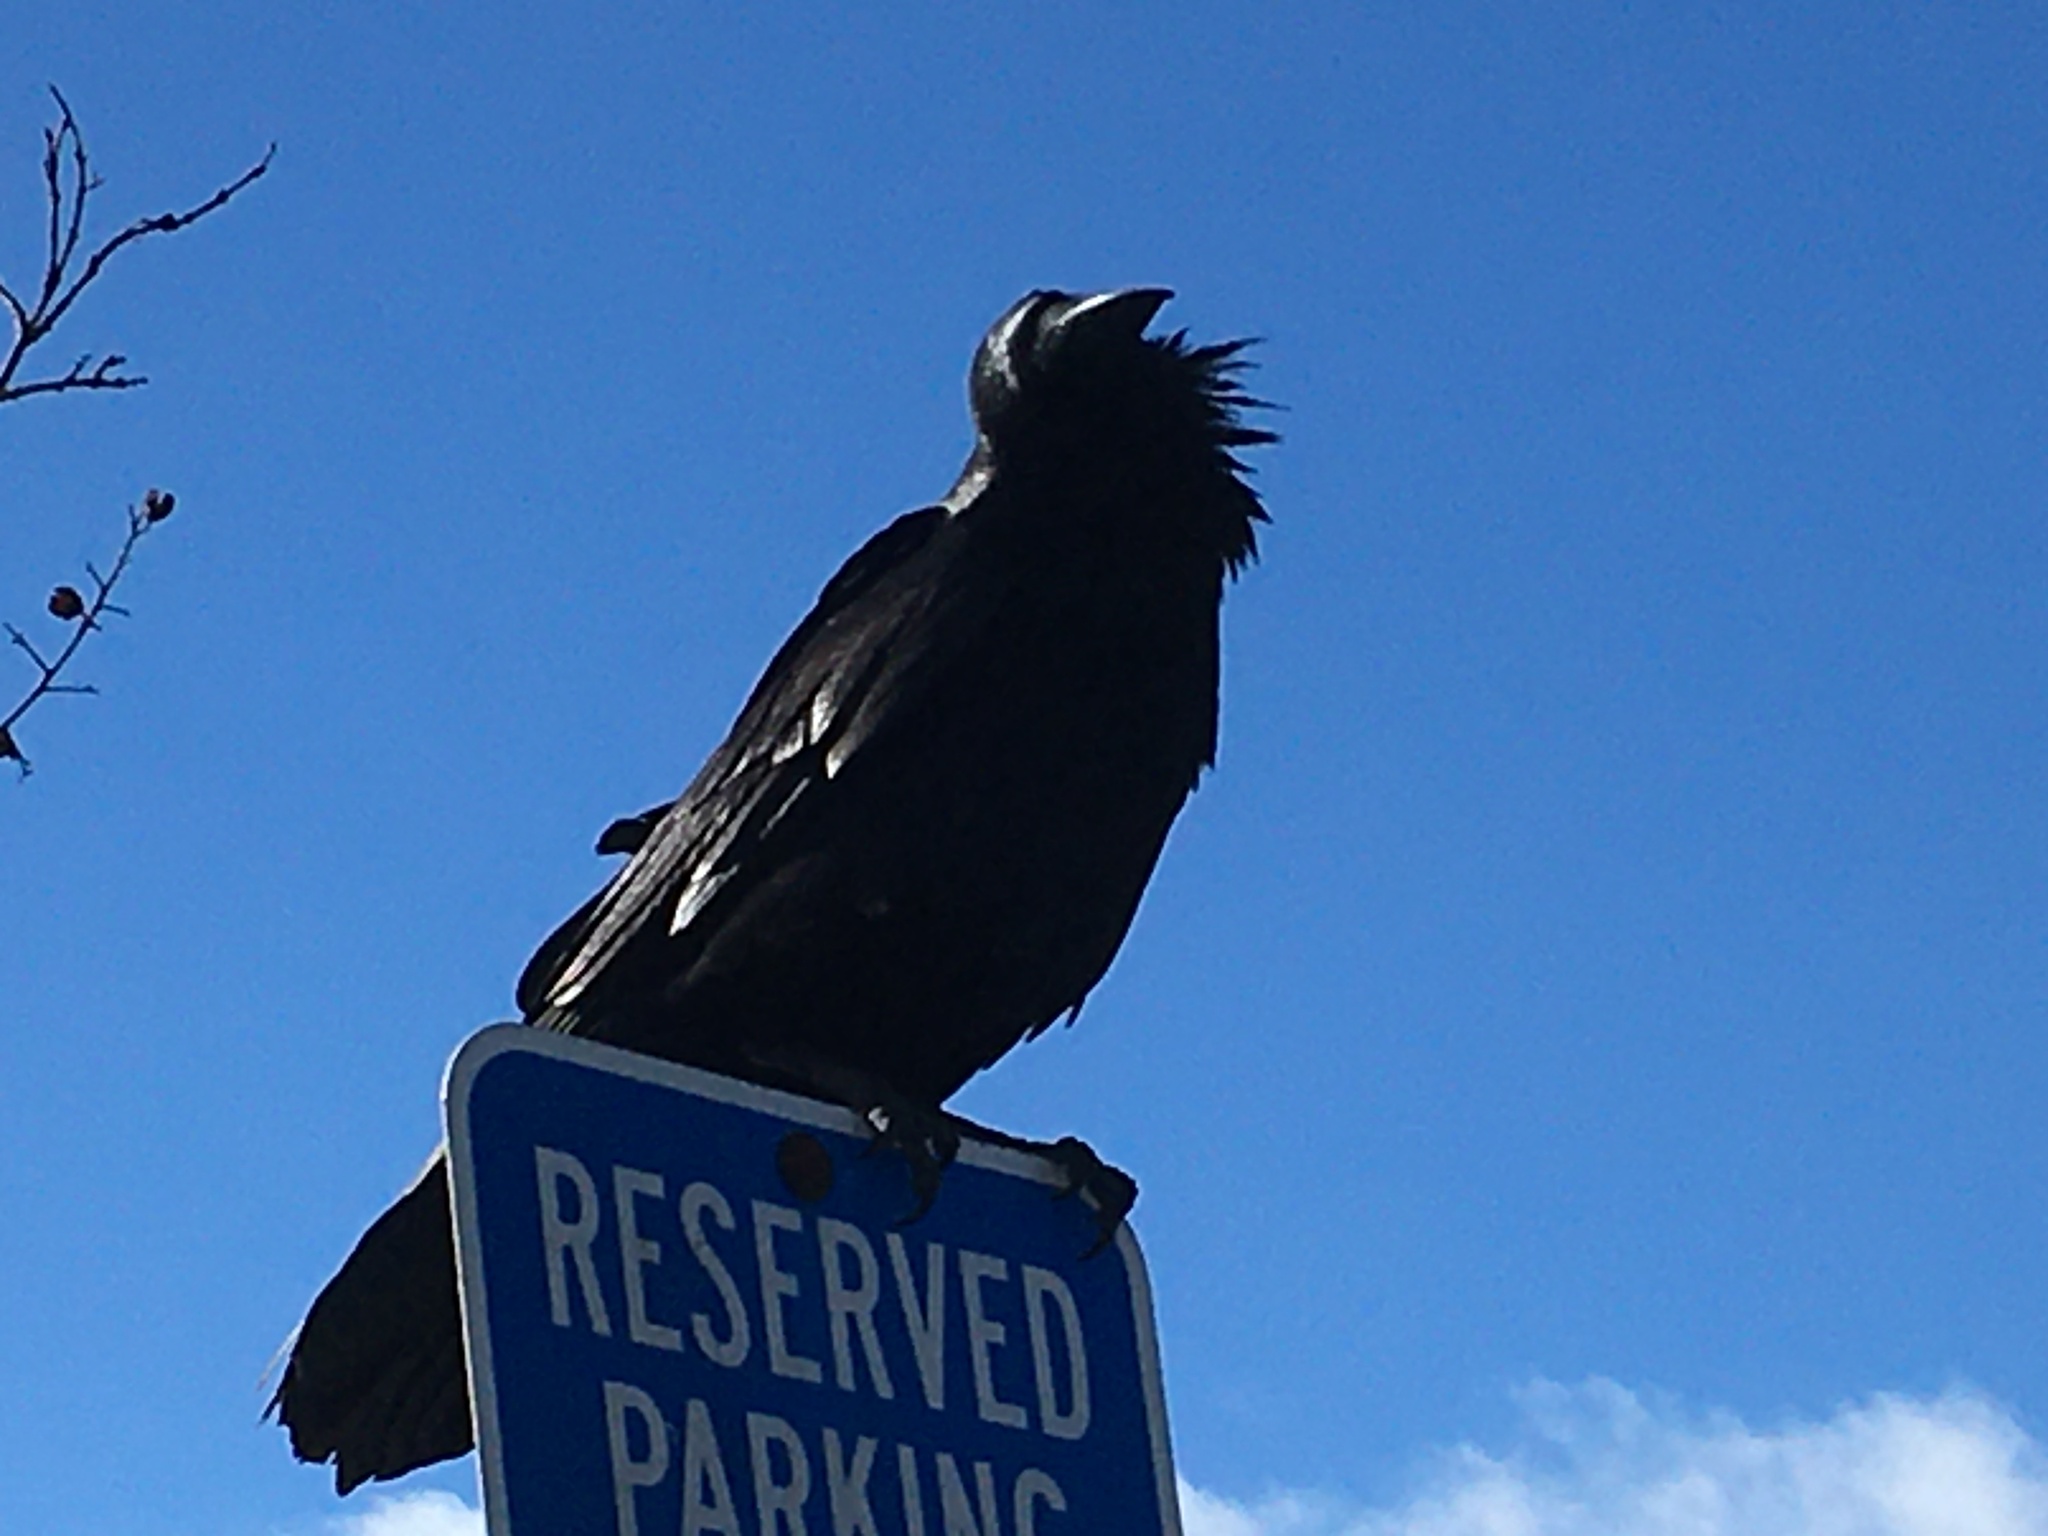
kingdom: Animalia
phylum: Chordata
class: Aves
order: Passeriformes
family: Corvidae
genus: Corvus
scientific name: Corvus corax
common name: Common raven
